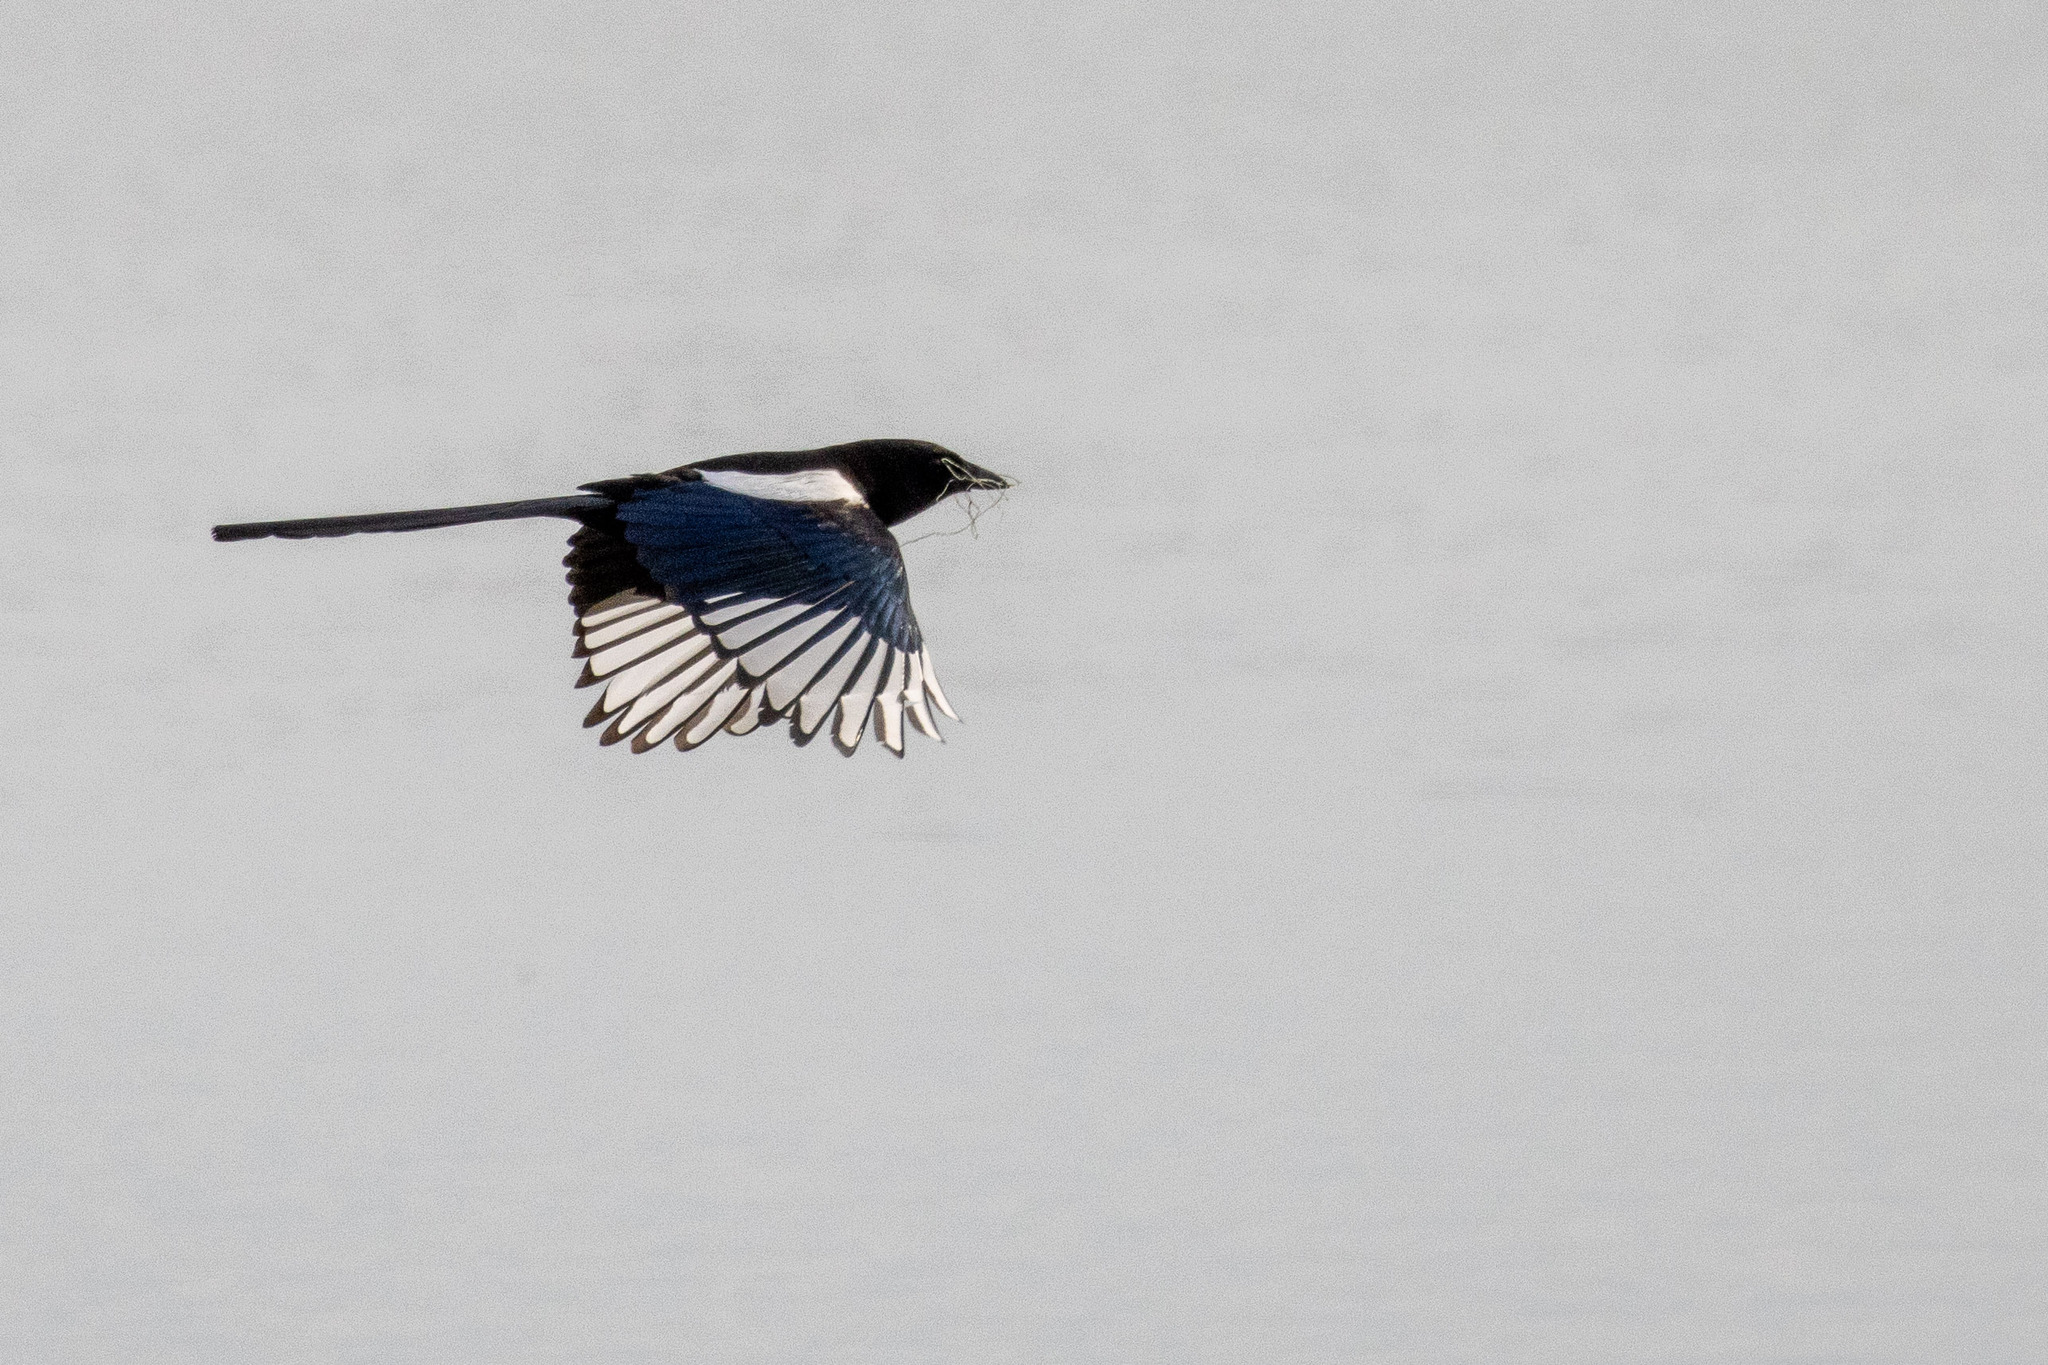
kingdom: Animalia
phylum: Chordata
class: Aves
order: Passeriformes
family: Corvidae
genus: Pica
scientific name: Pica pica
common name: Eurasian magpie
